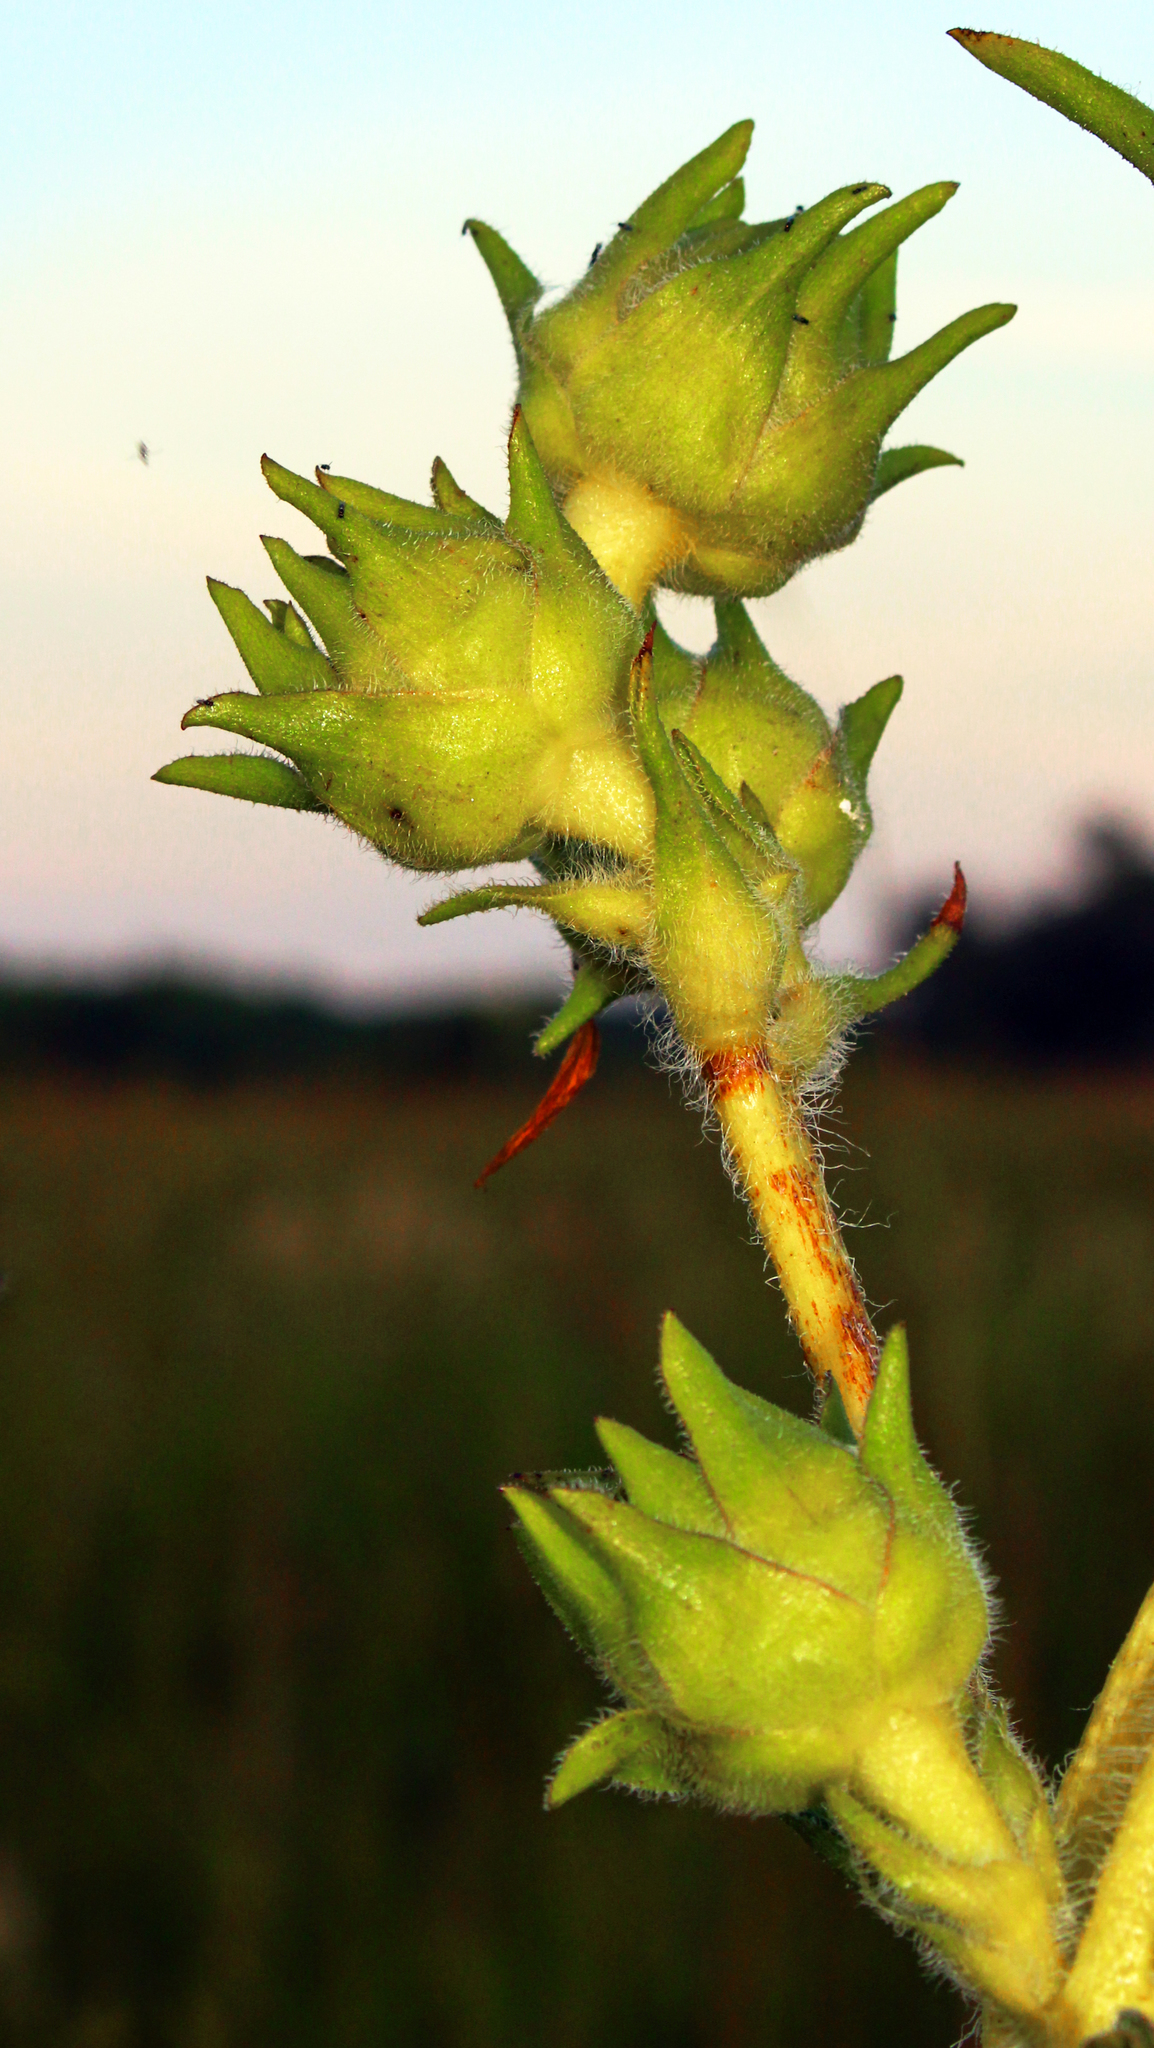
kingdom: Plantae
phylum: Tracheophyta
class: Magnoliopsida
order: Asterales
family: Asteraceae
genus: Silphium
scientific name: Silphium laciniatum
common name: Polarplant
